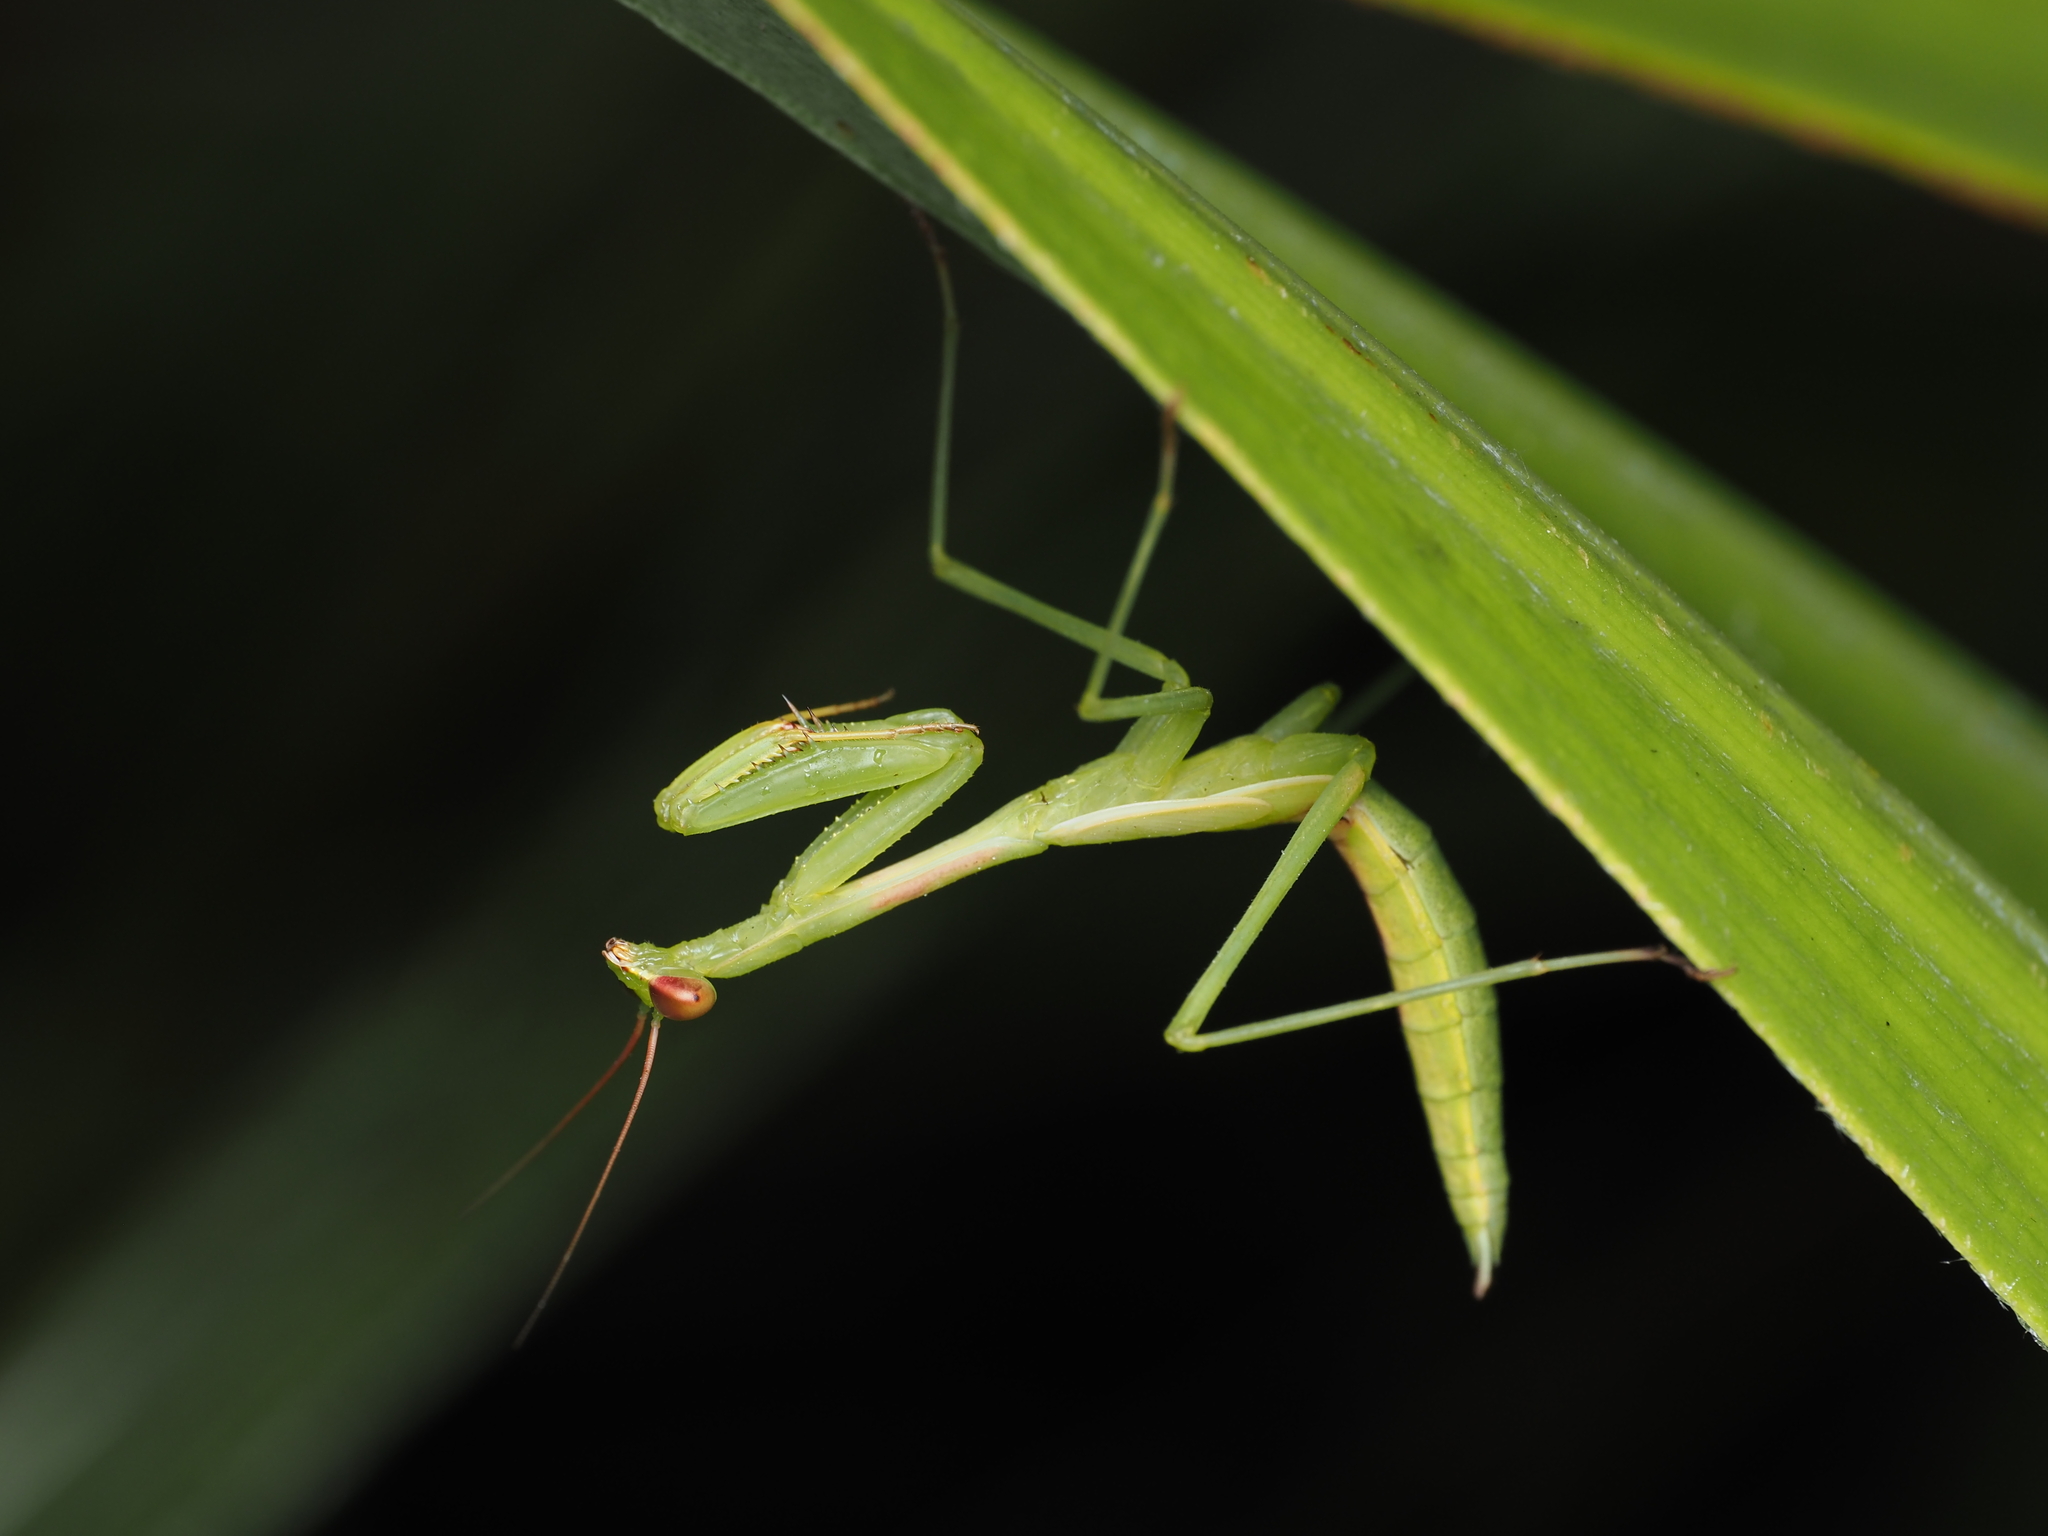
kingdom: Animalia
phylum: Arthropoda
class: Insecta
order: Mantodea
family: Miomantidae
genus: Miomantis
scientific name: Miomantis caffra
